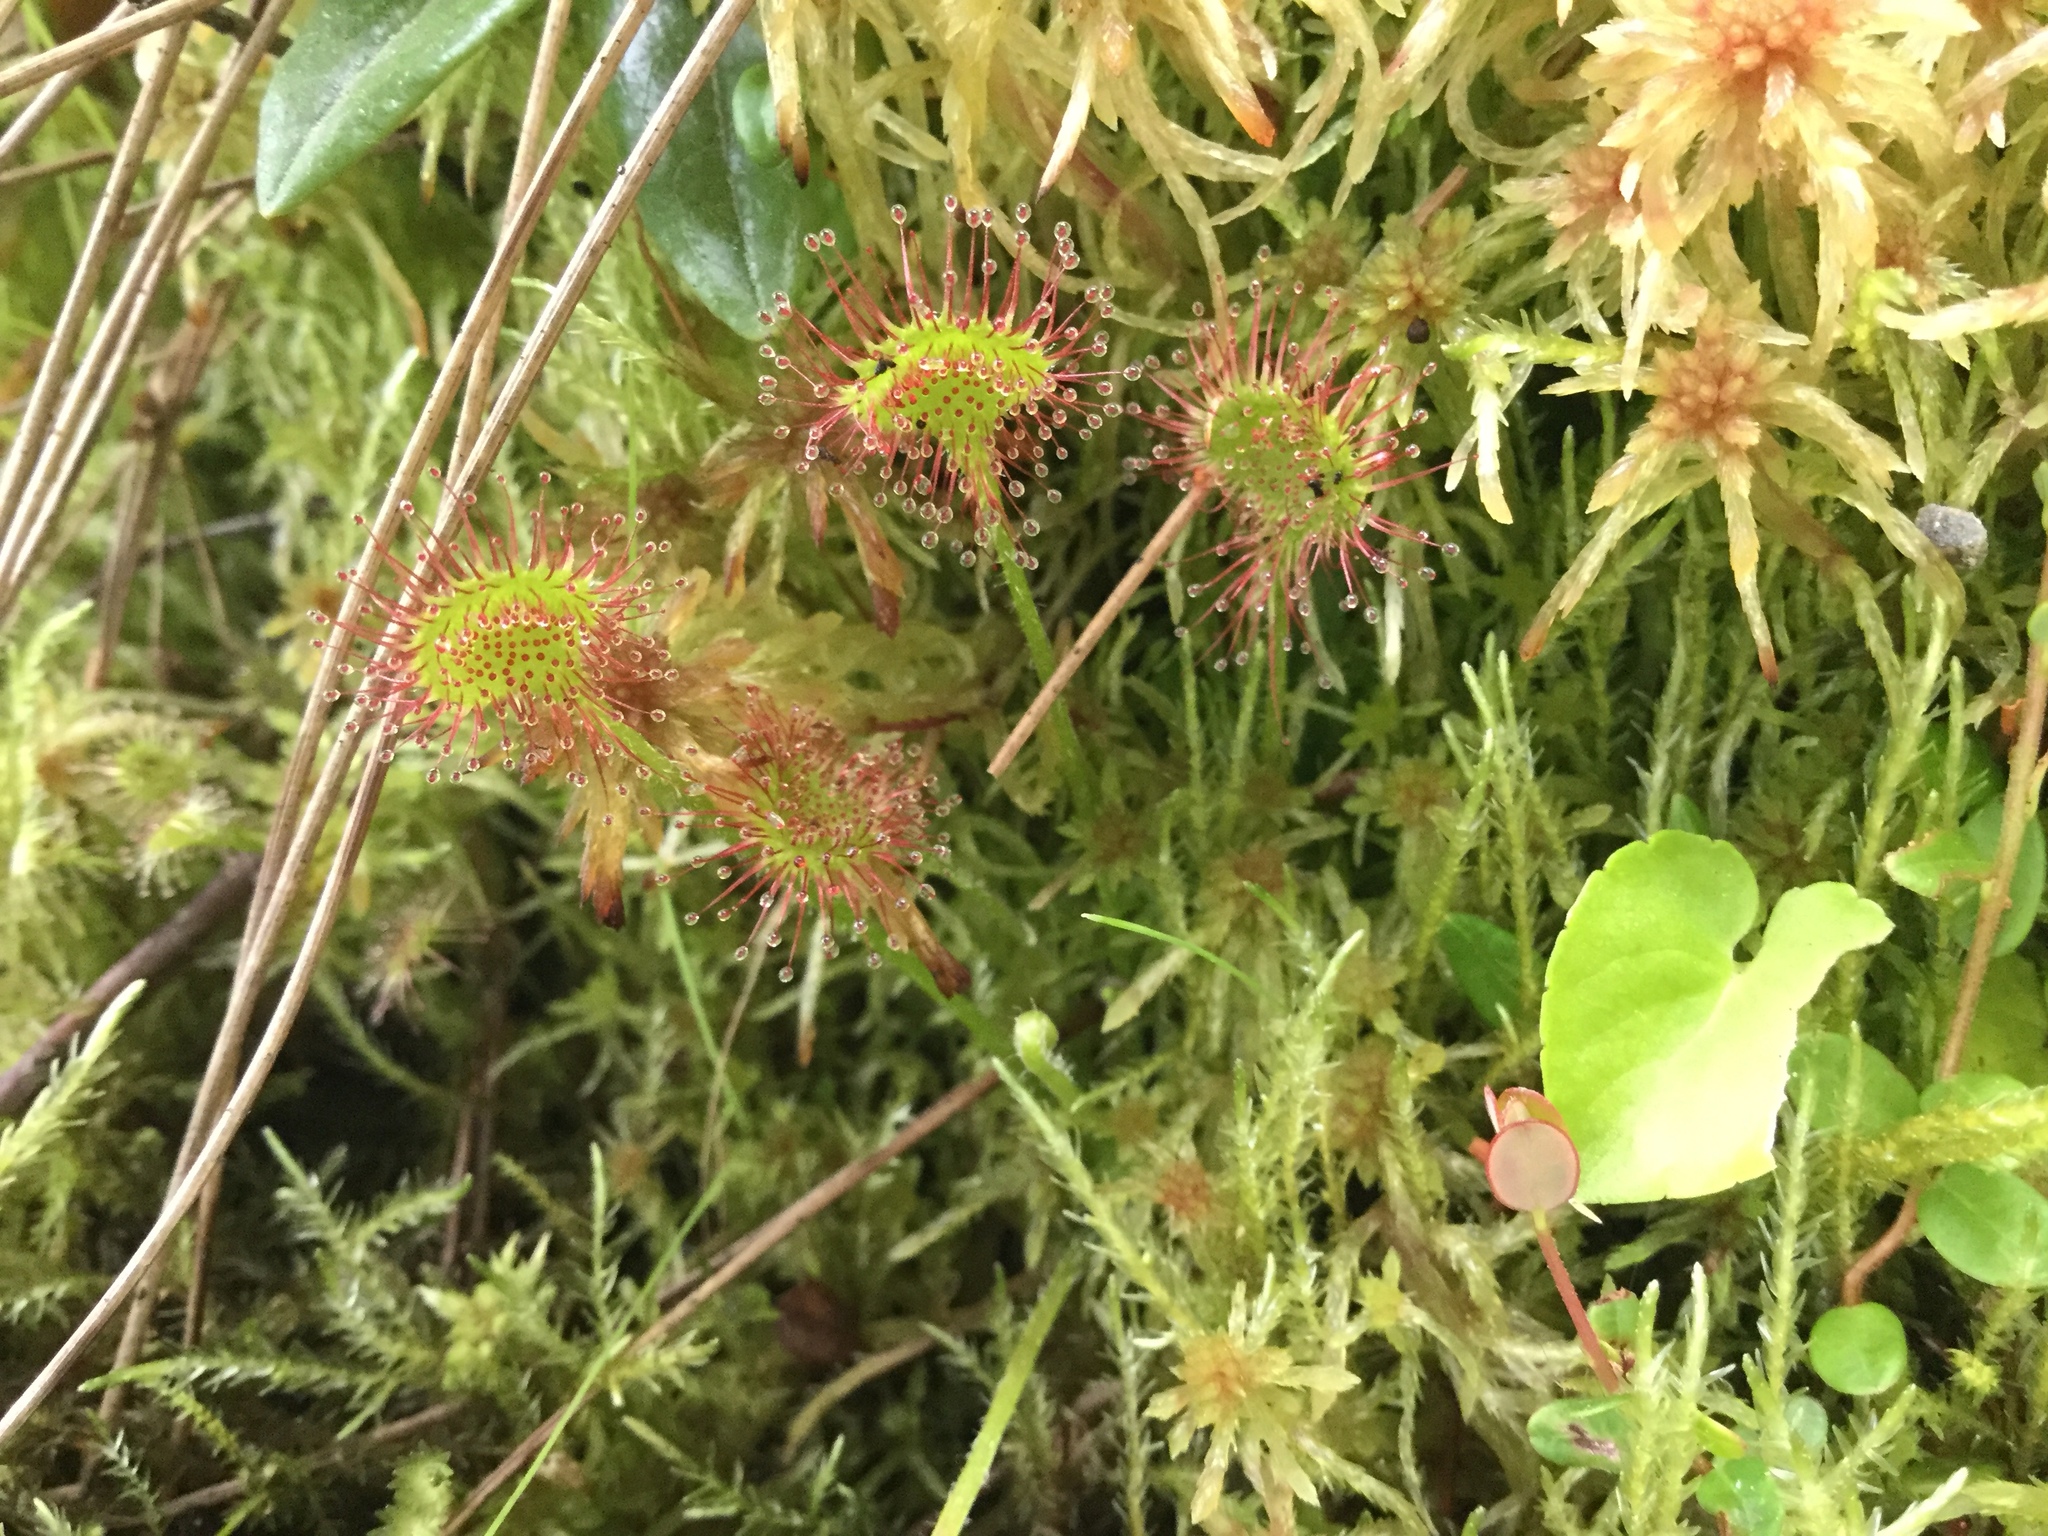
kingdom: Plantae
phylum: Tracheophyta
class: Magnoliopsida
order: Caryophyllales
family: Droseraceae
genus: Drosera
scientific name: Drosera rotundifolia
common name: Round-leaved sundew
